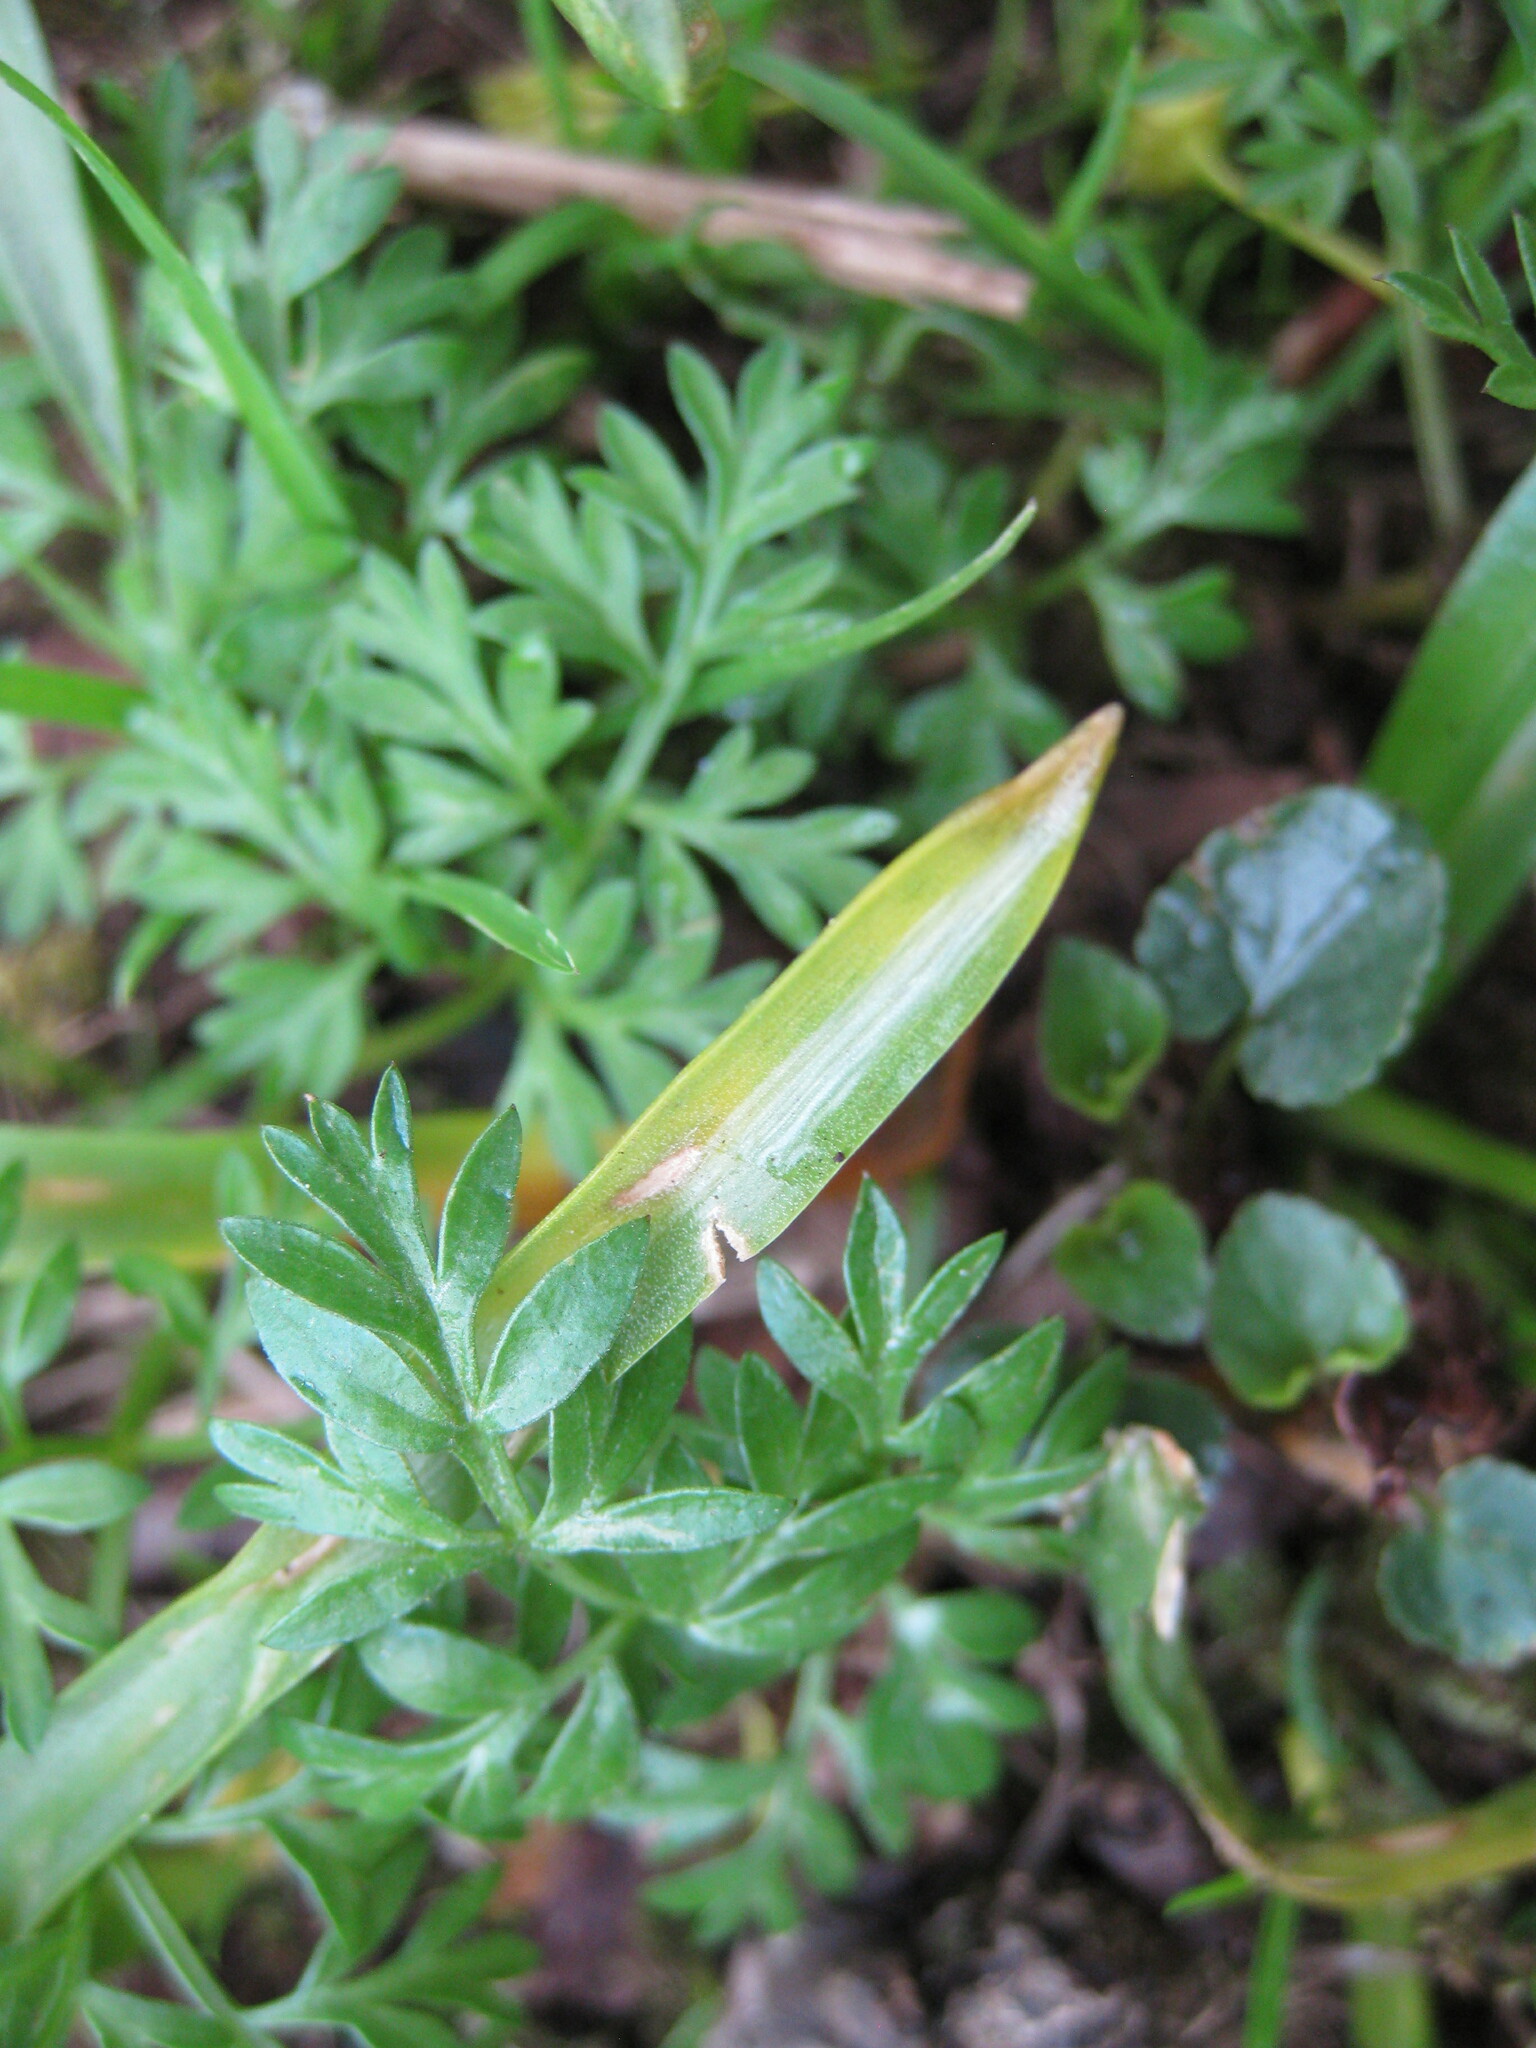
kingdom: Plantae
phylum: Tracheophyta
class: Magnoliopsida
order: Apiales
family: Apiaceae
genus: Conopodium
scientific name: Conopodium majus
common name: Pignut
